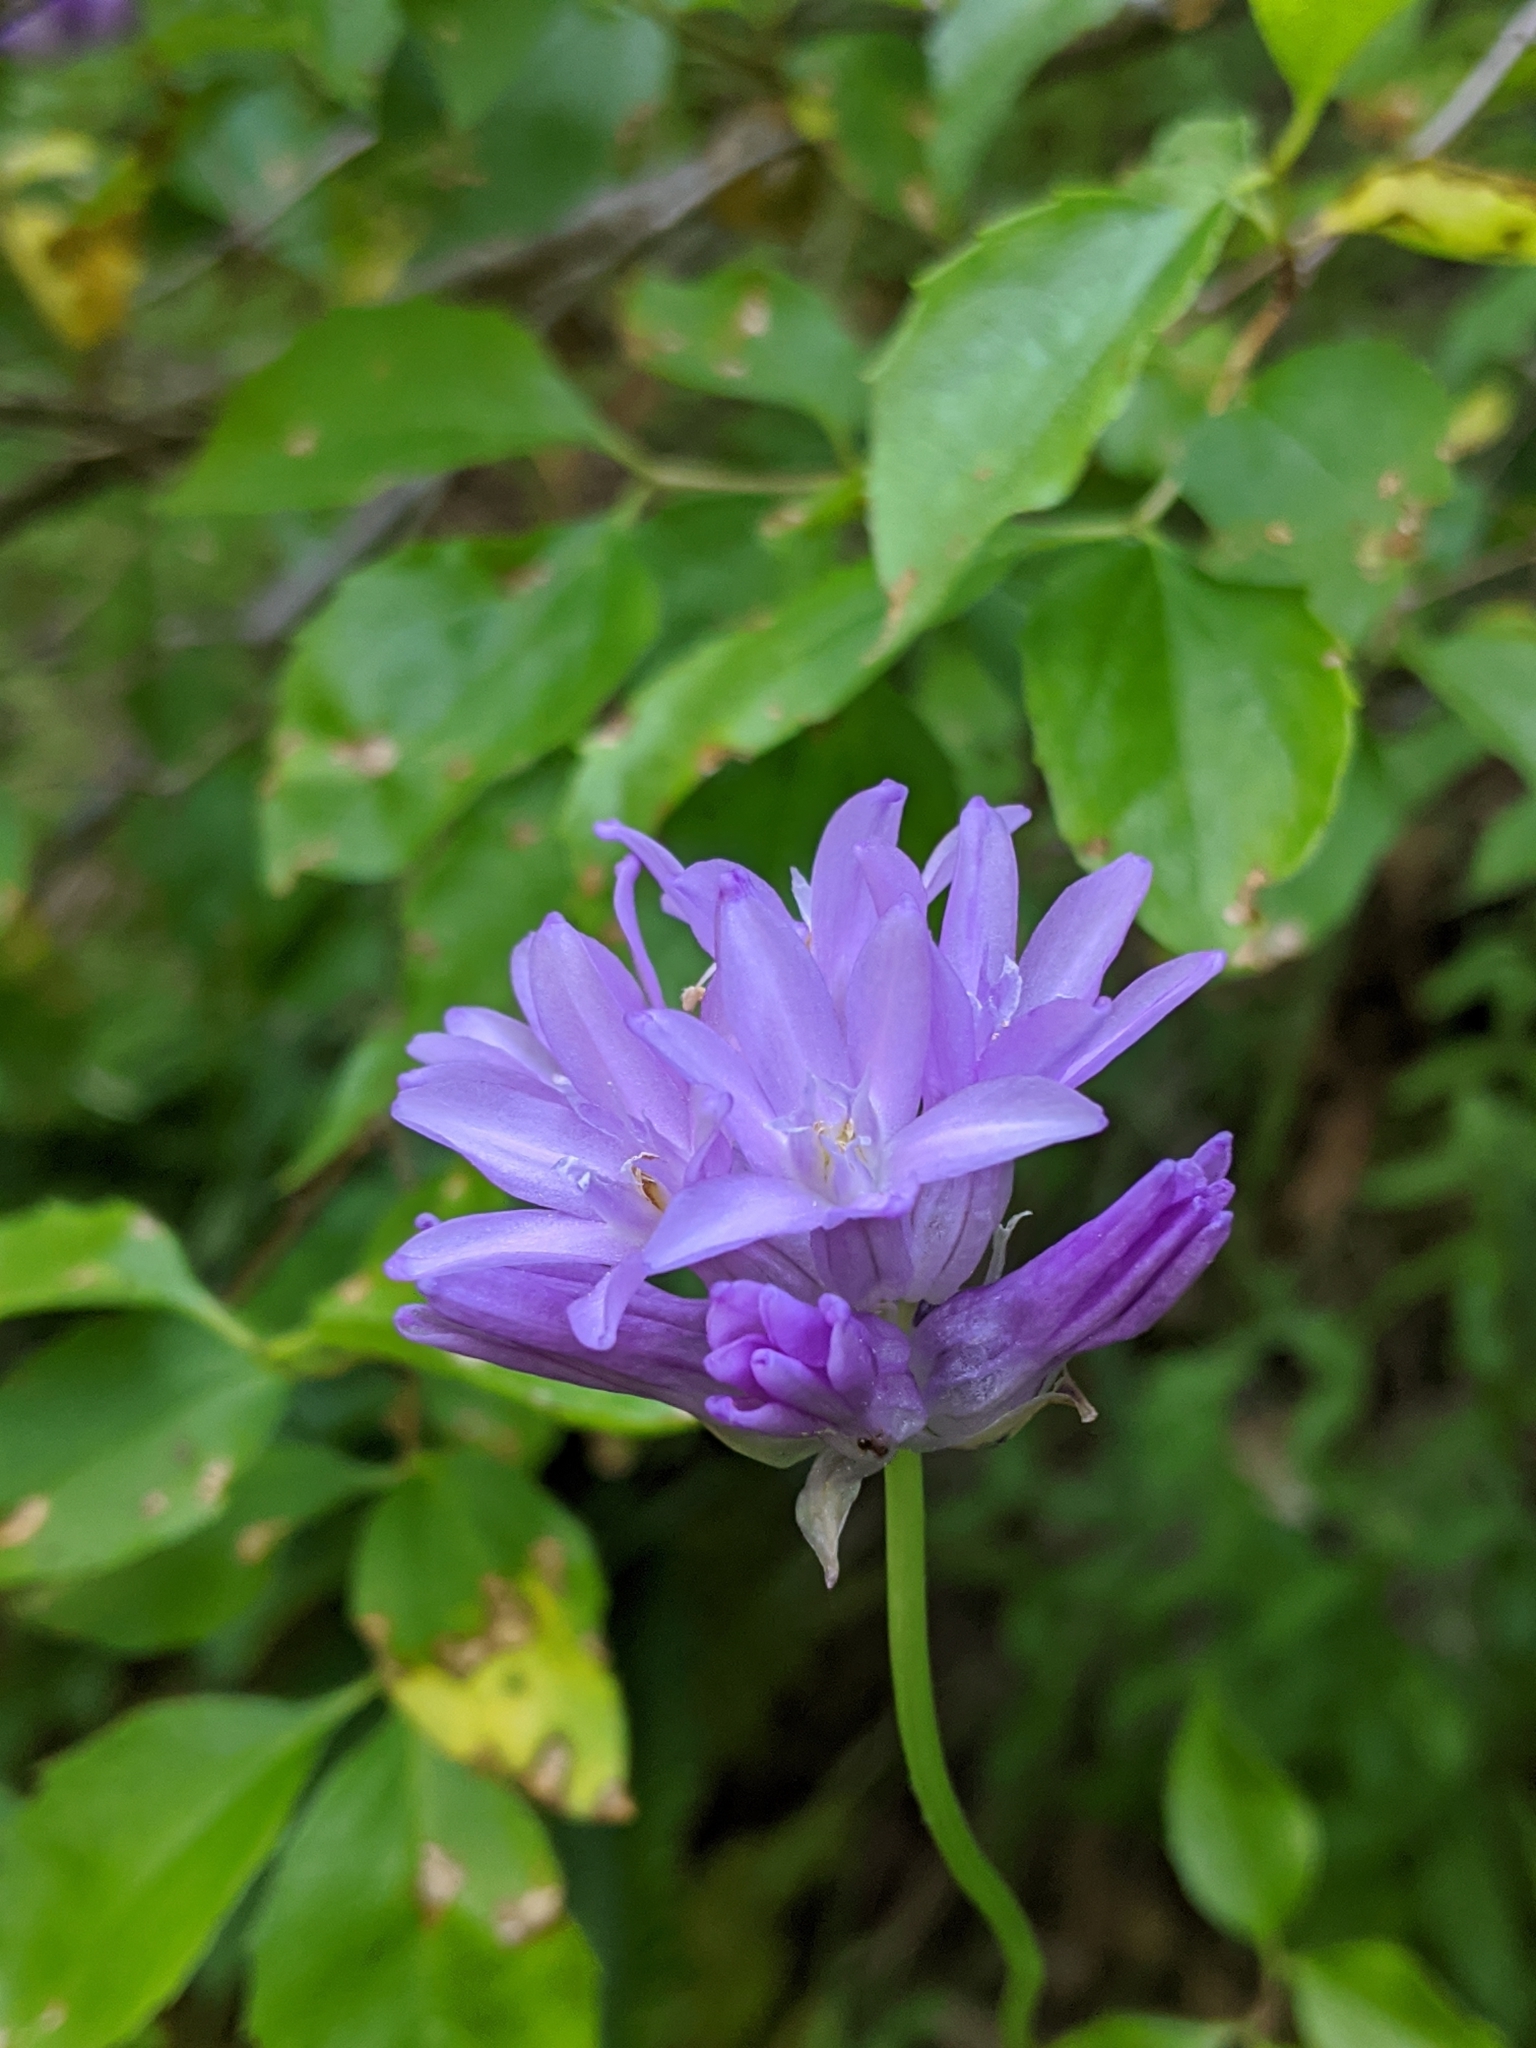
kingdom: Plantae
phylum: Tracheophyta
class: Liliopsida
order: Asparagales
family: Asparagaceae
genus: Dichelostemma
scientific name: Dichelostemma congestum
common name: Fork-tooth ookow
